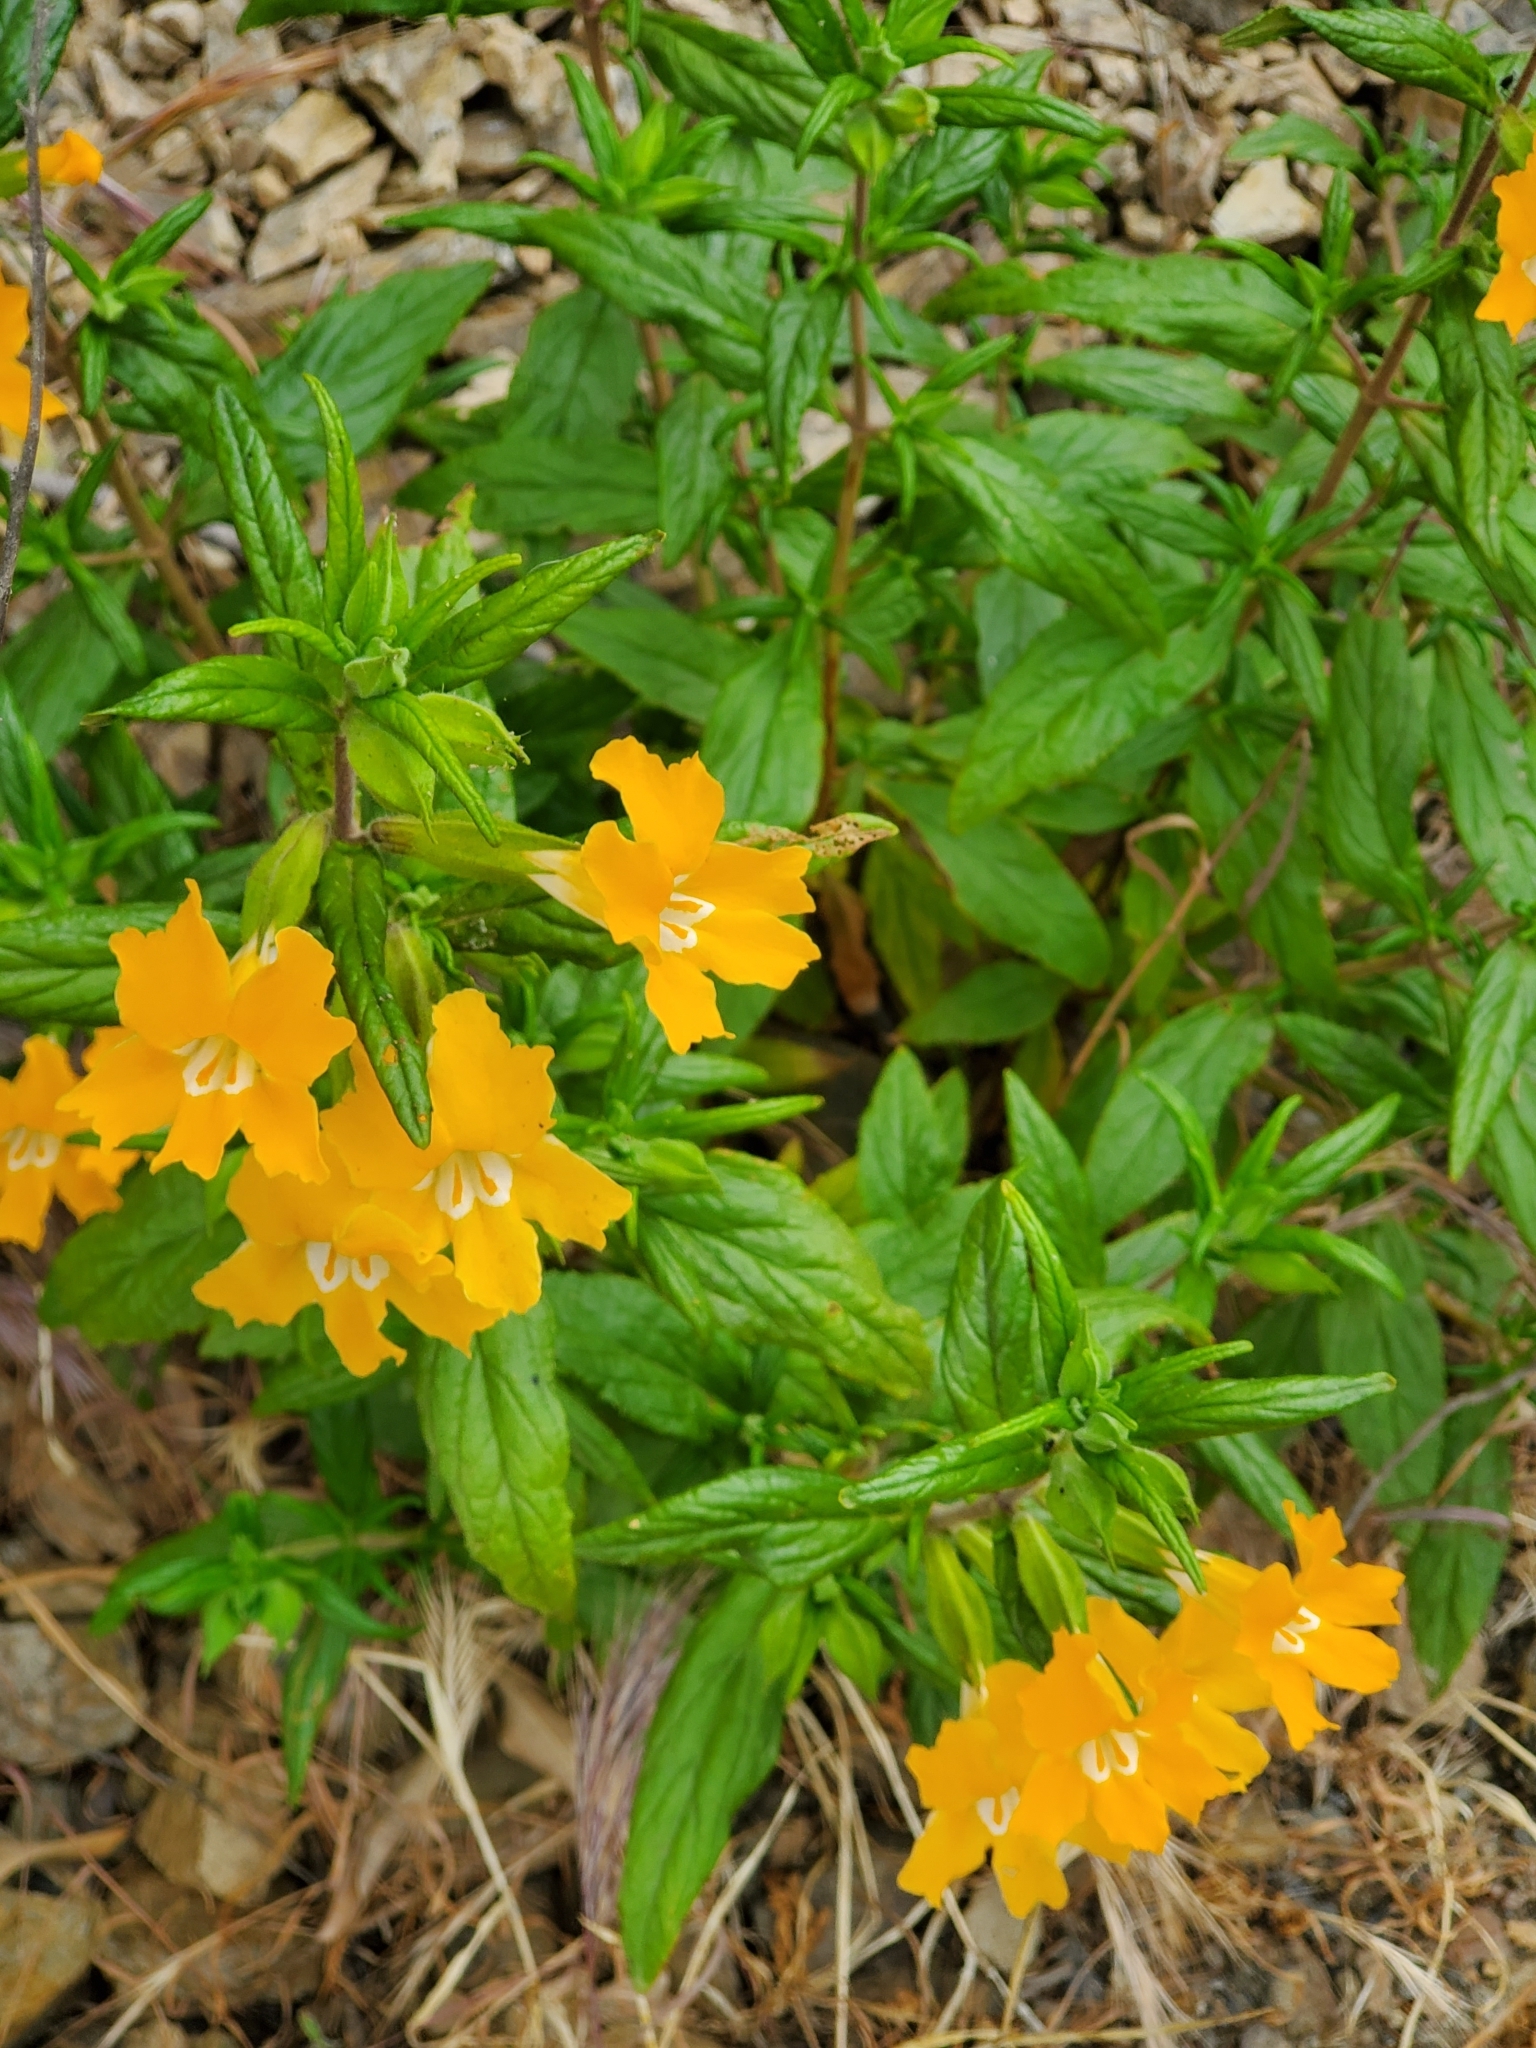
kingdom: Plantae
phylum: Tracheophyta
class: Magnoliopsida
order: Lamiales
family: Phrymaceae
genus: Diplacus
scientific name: Diplacus longiflorus
